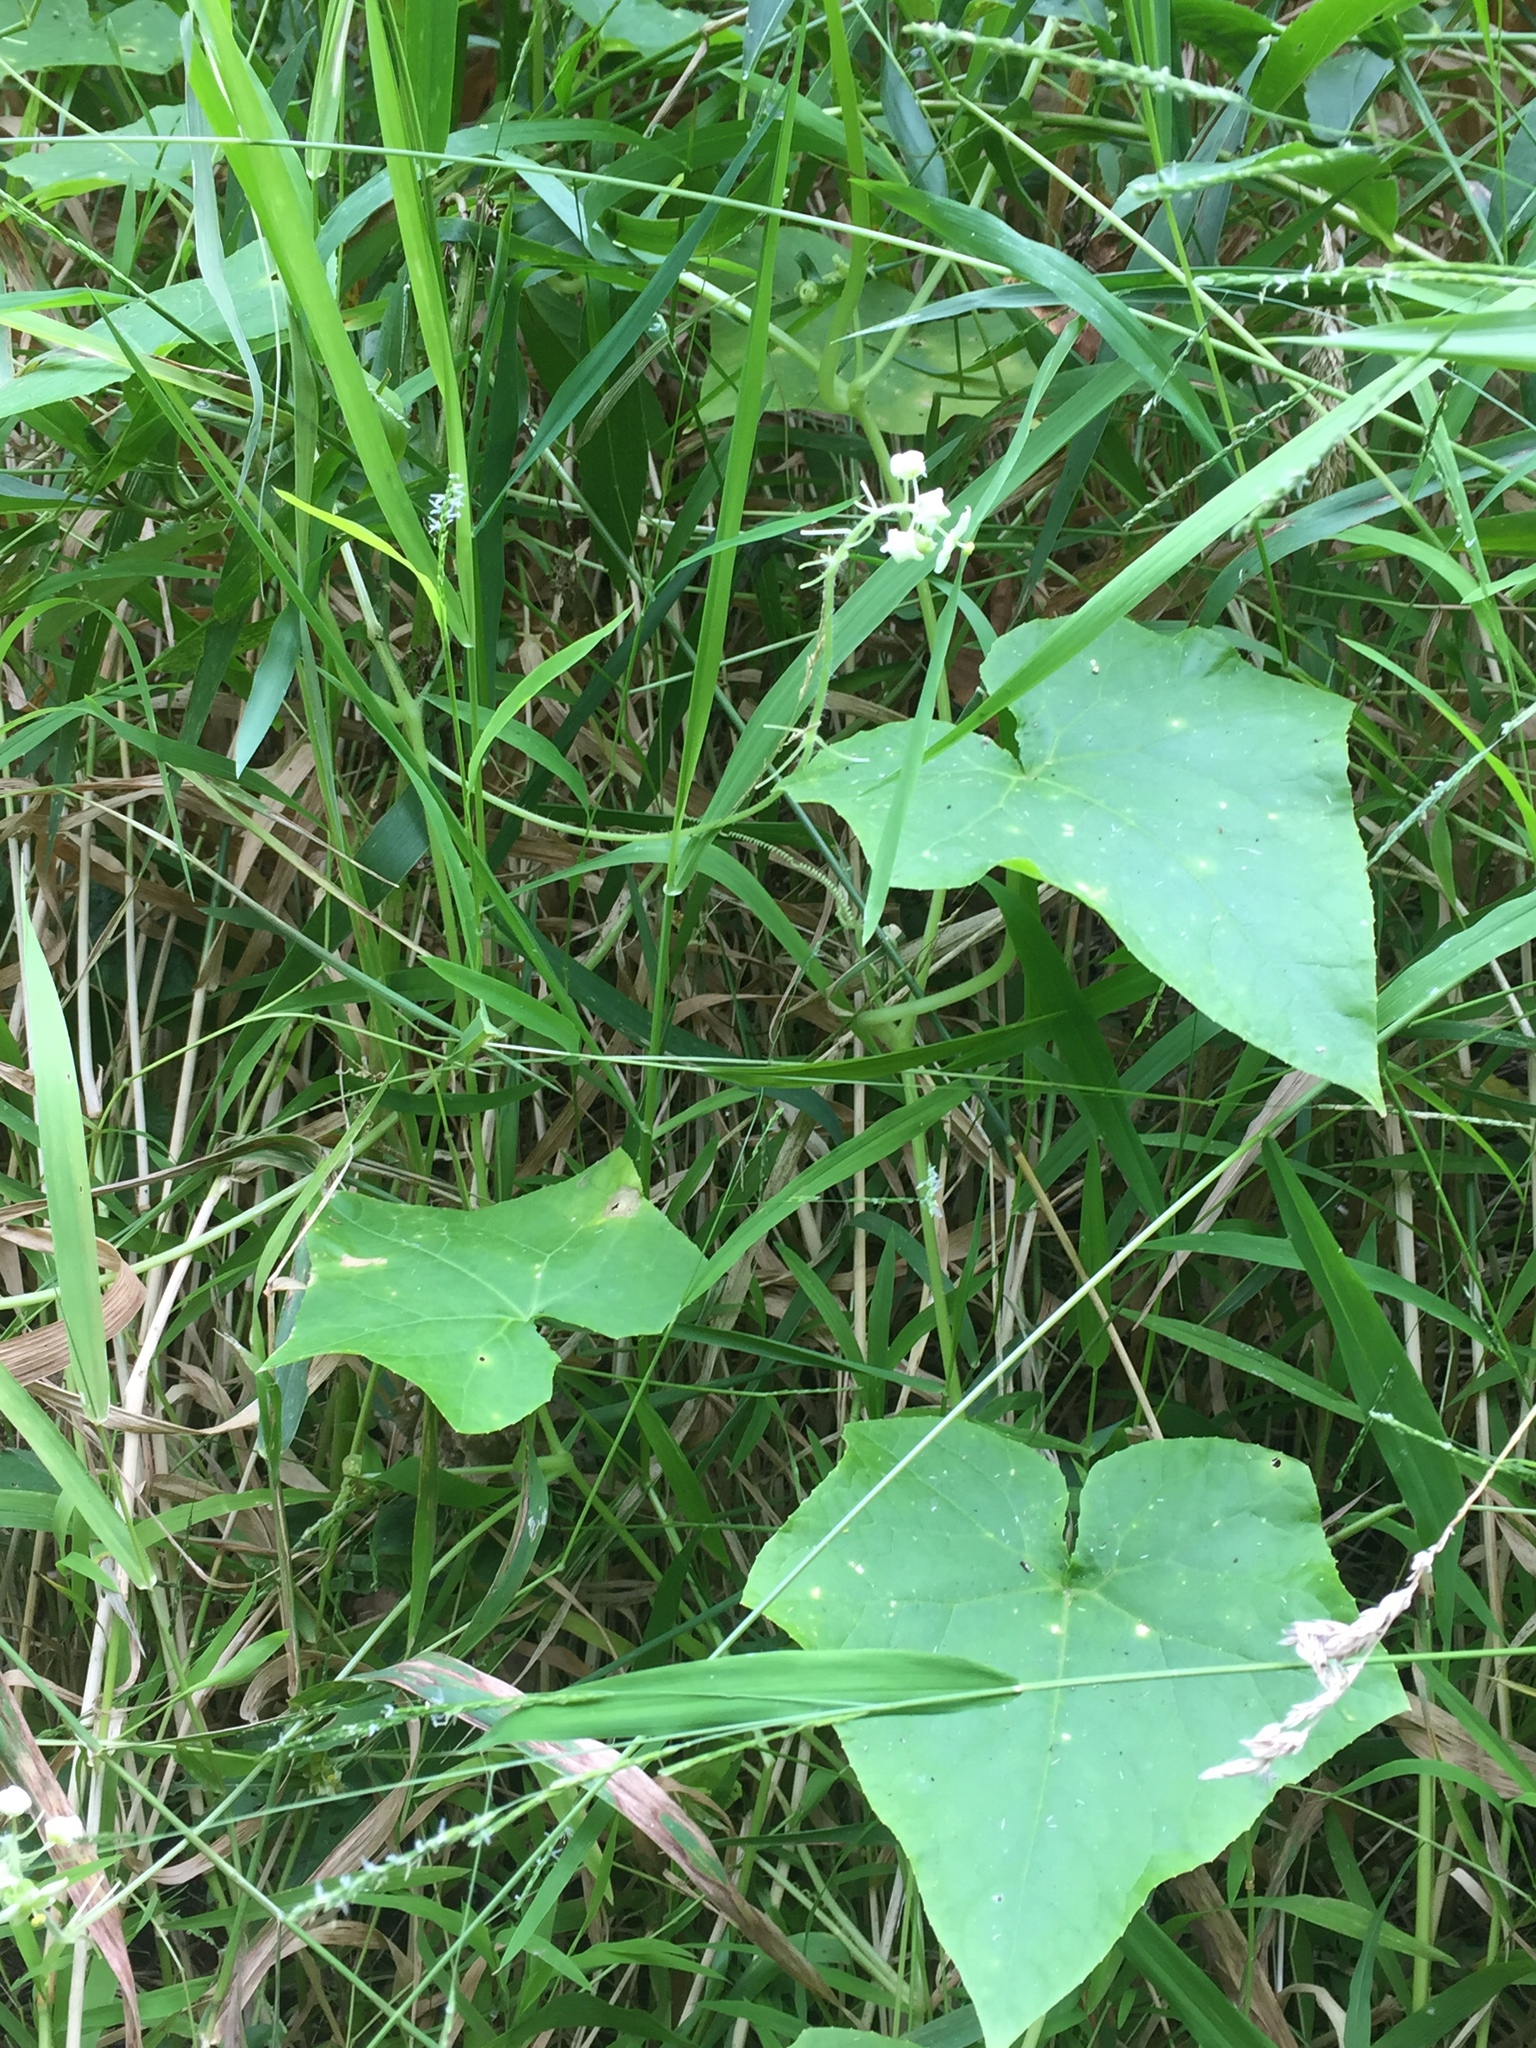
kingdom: Plantae
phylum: Tracheophyta
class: Magnoliopsida
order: Cucurbitales
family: Cucurbitaceae
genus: Sicyos
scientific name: Sicyos angulatus
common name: Angled burr cucumber
